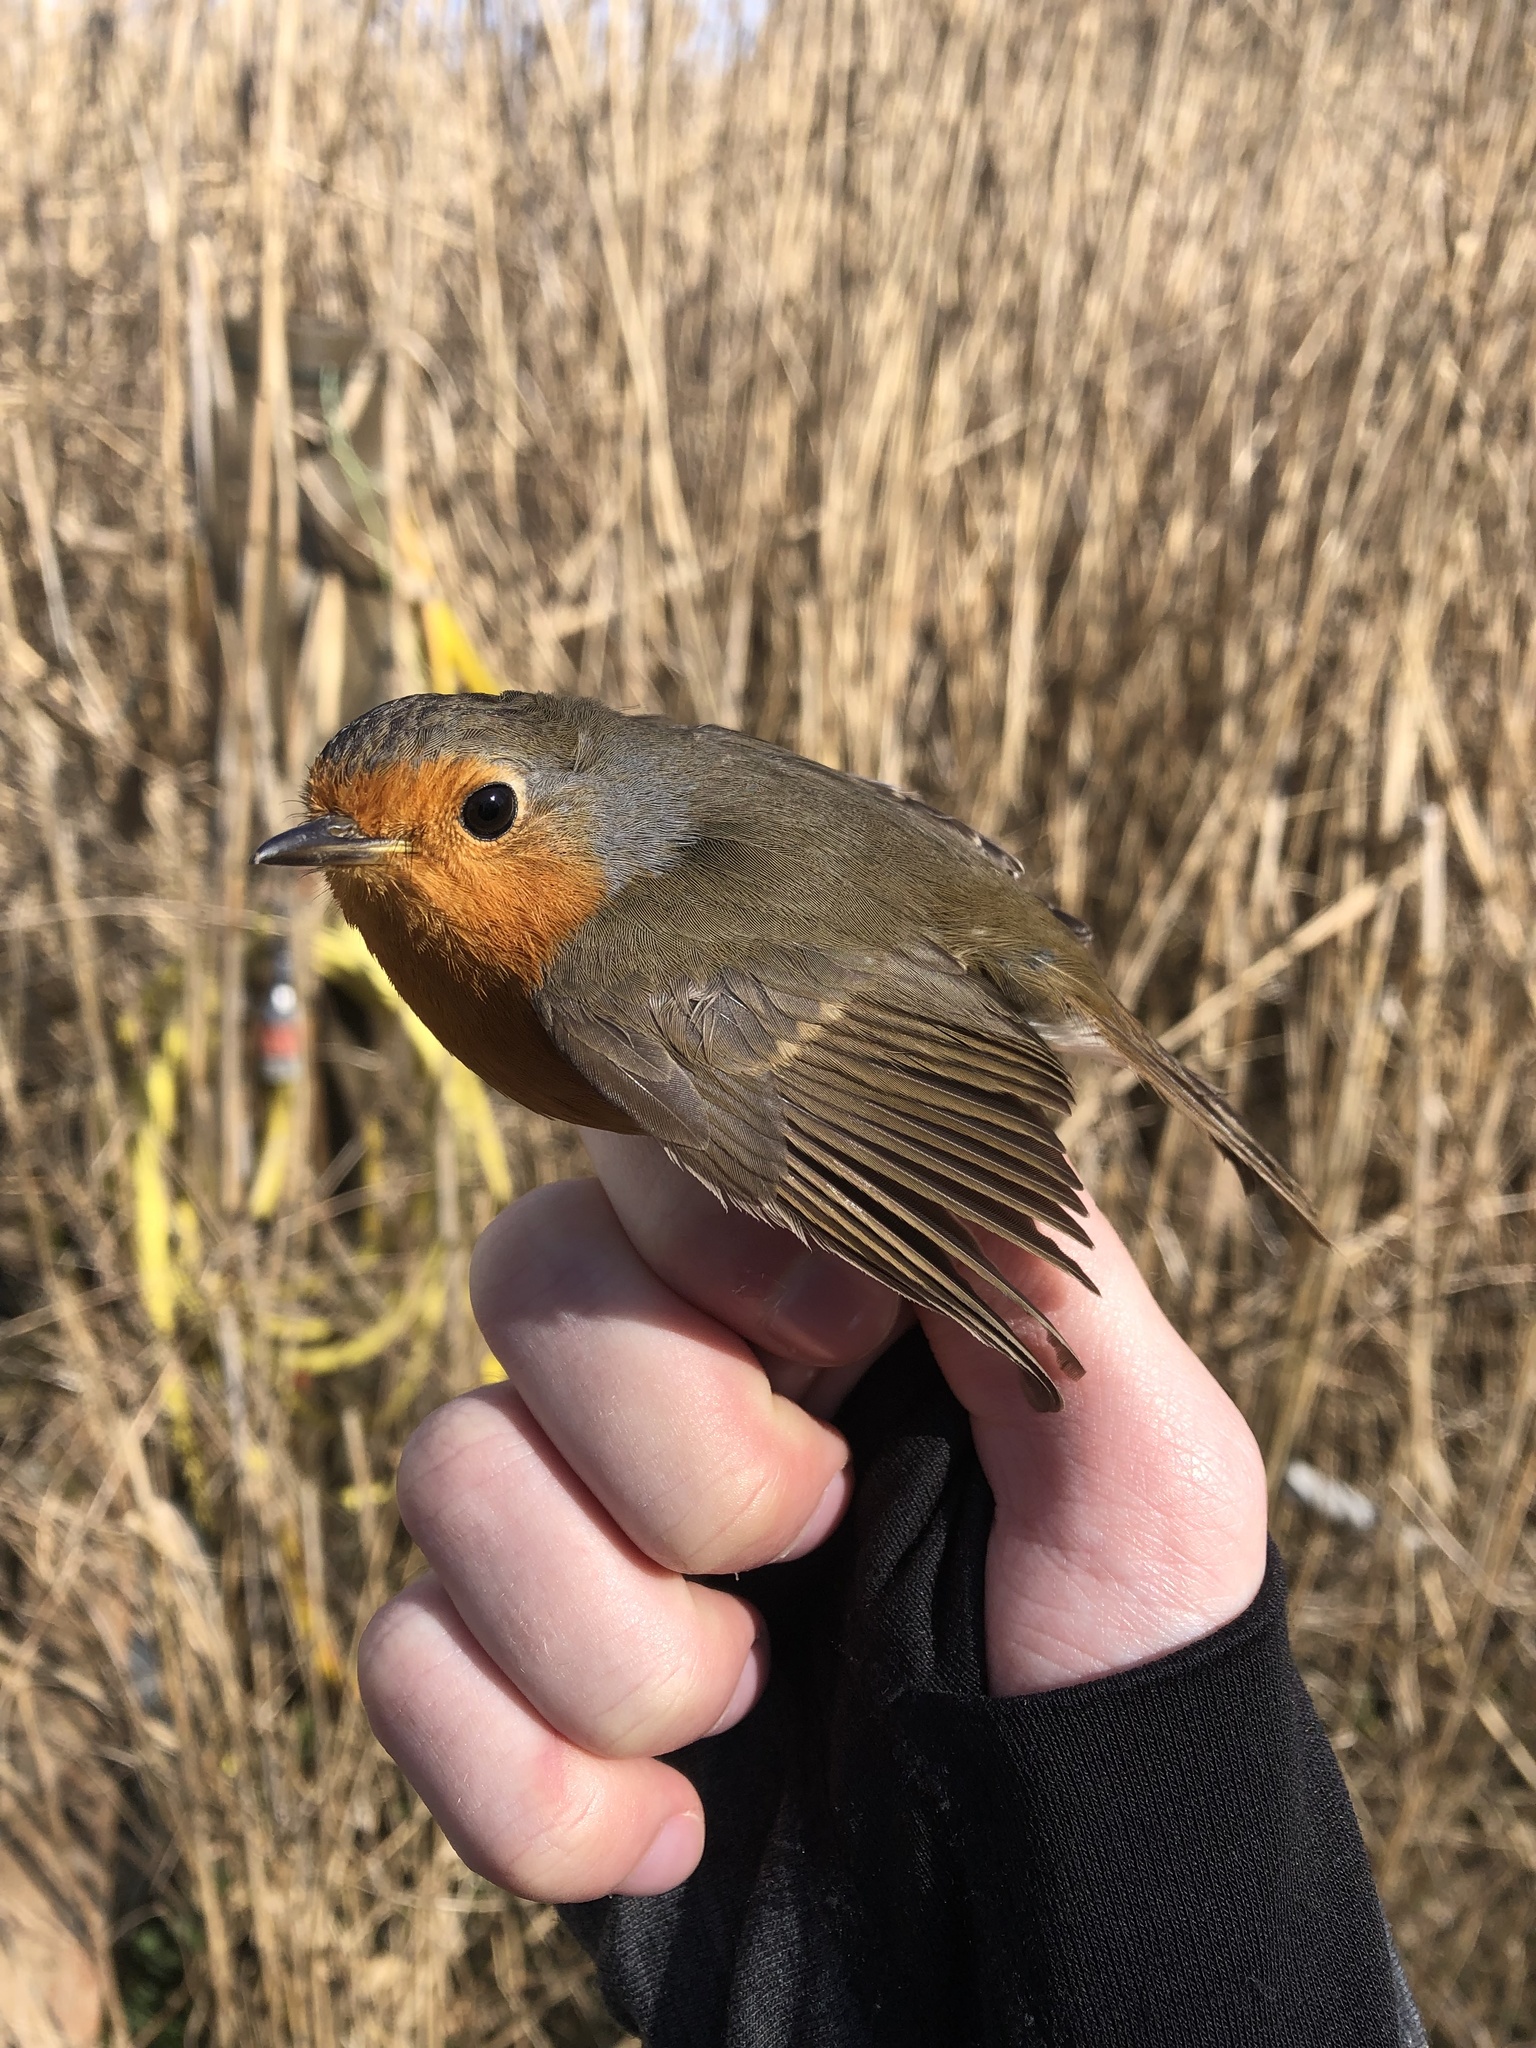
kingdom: Animalia
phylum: Chordata
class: Aves
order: Passeriformes
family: Muscicapidae
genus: Erithacus
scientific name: Erithacus rubecula
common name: European robin
